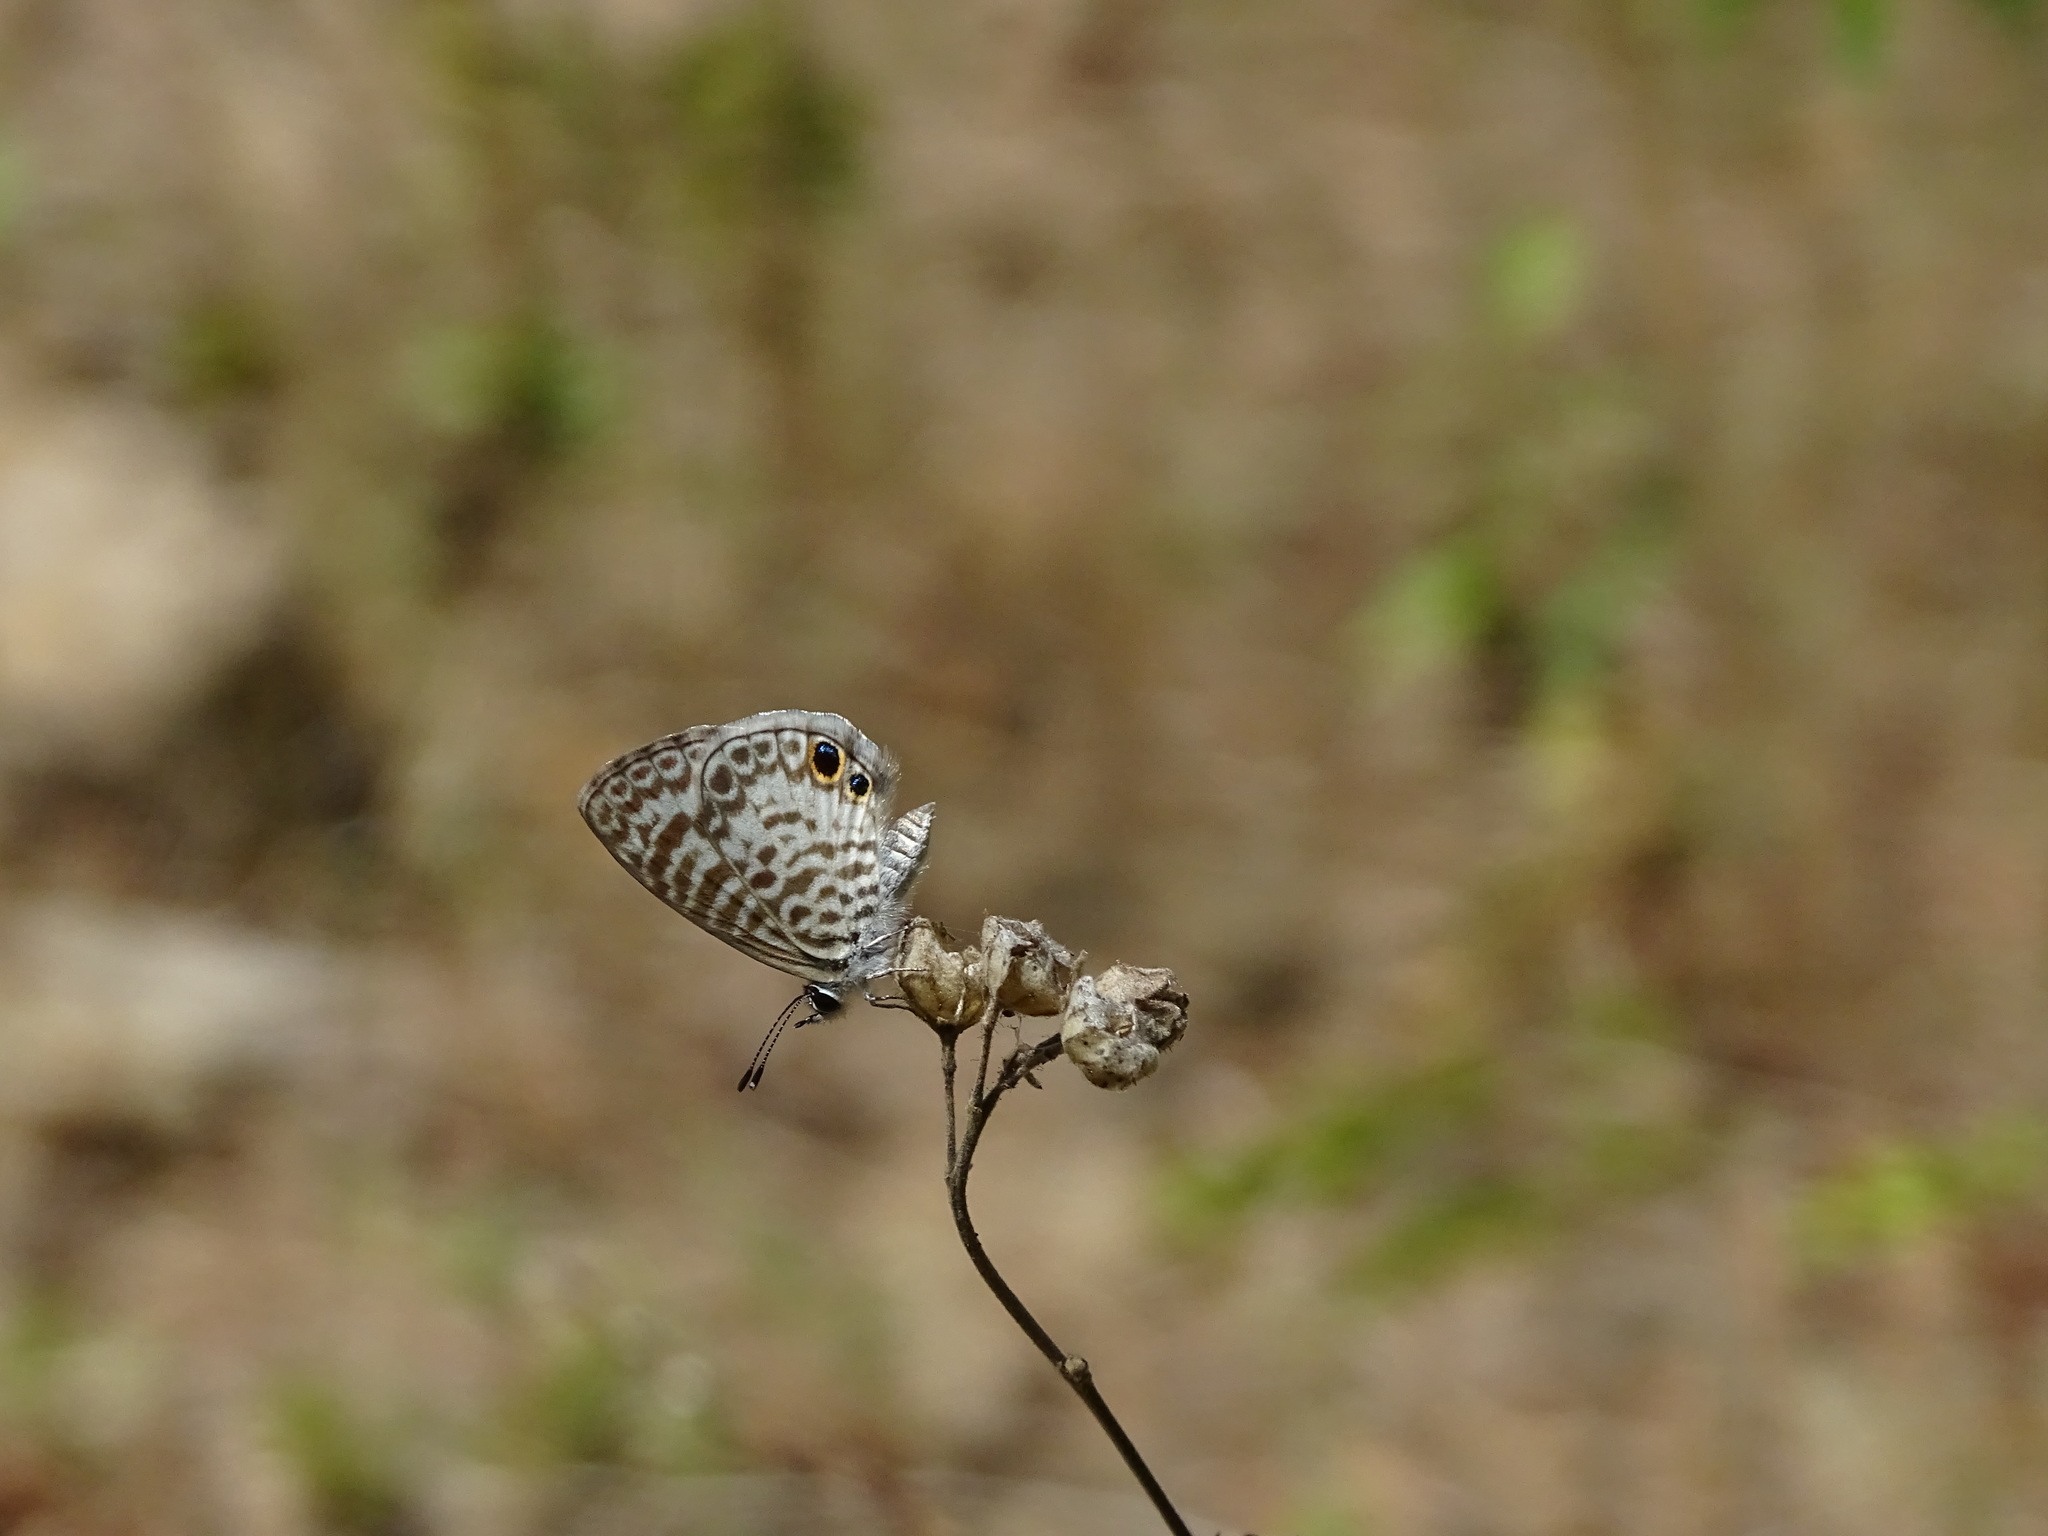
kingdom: Animalia
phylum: Arthropoda
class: Insecta
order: Lepidoptera
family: Lycaenidae
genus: Leptotes
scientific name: Leptotes cassius
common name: Cassius blue
